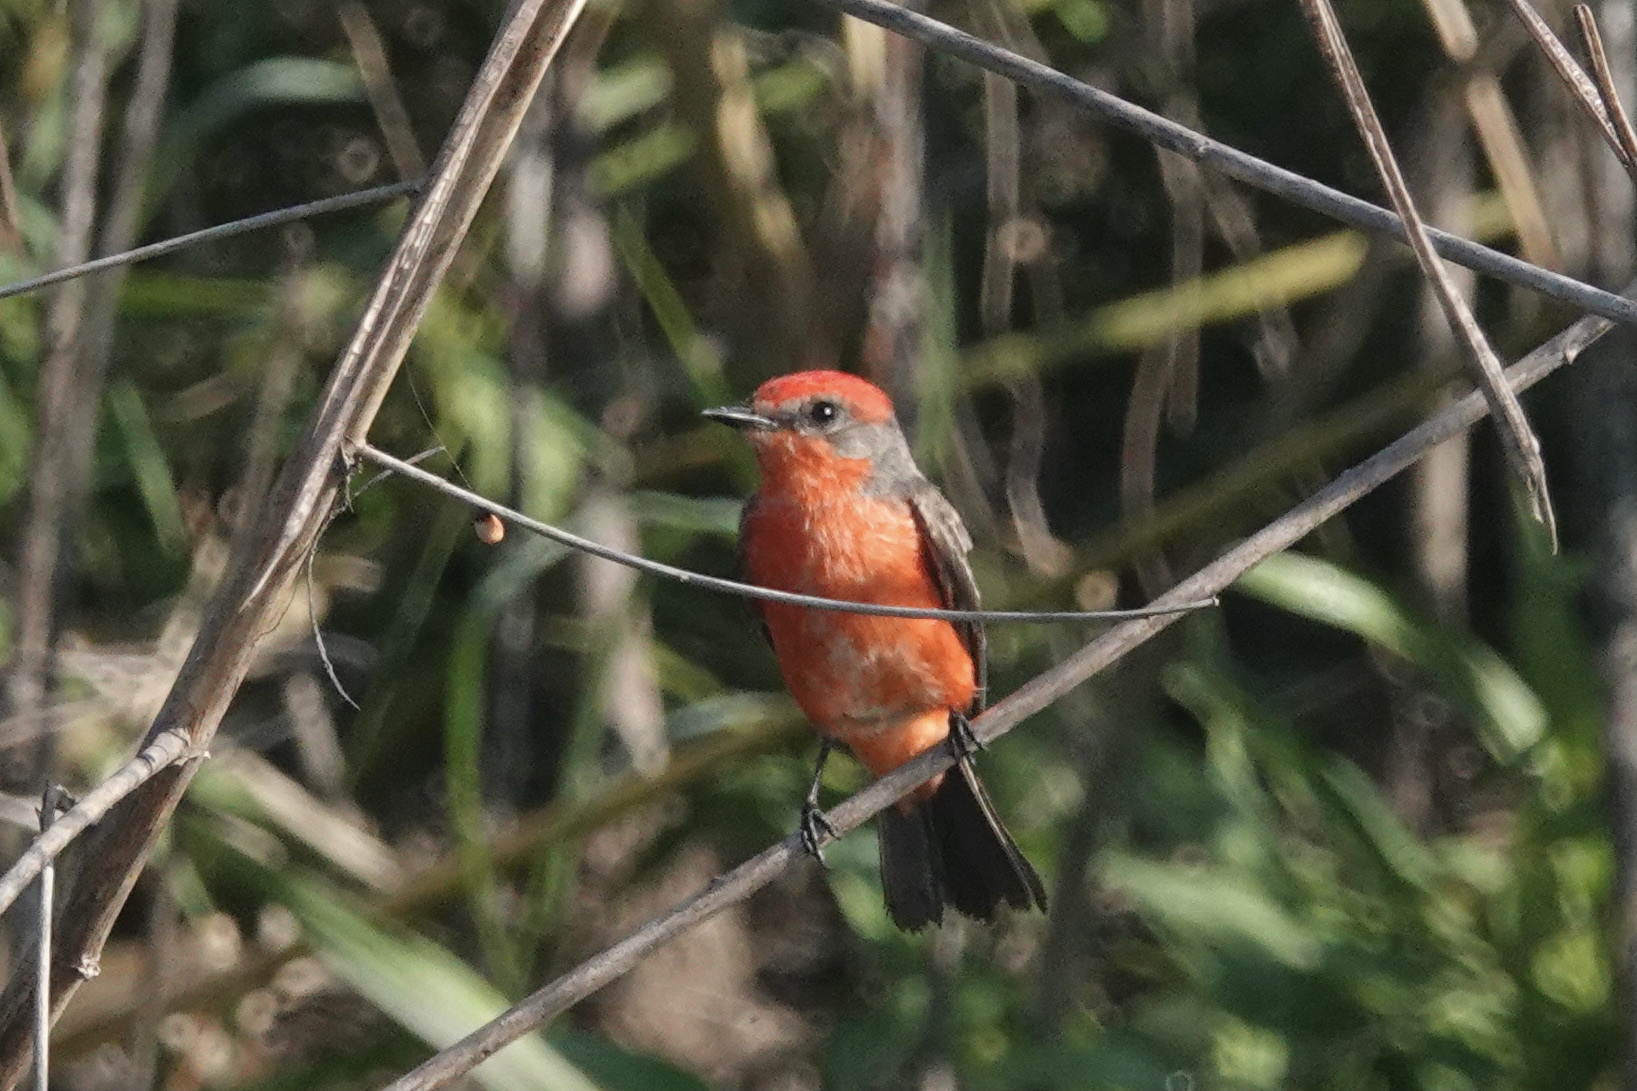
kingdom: Animalia
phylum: Chordata
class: Aves
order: Passeriformes
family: Tyrannidae
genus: Pyrocephalus
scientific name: Pyrocephalus rubinus
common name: Vermilion flycatcher
